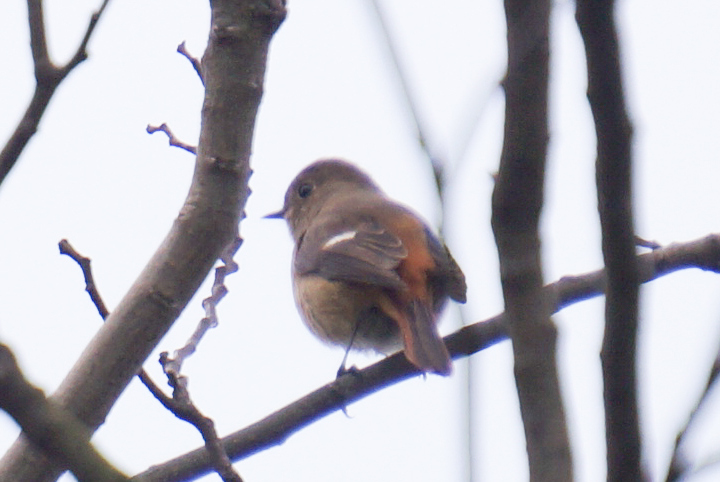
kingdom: Animalia
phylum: Chordata
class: Aves
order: Passeriformes
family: Muscicapidae
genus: Phoenicurus
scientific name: Phoenicurus auroreus
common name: Daurian redstart
